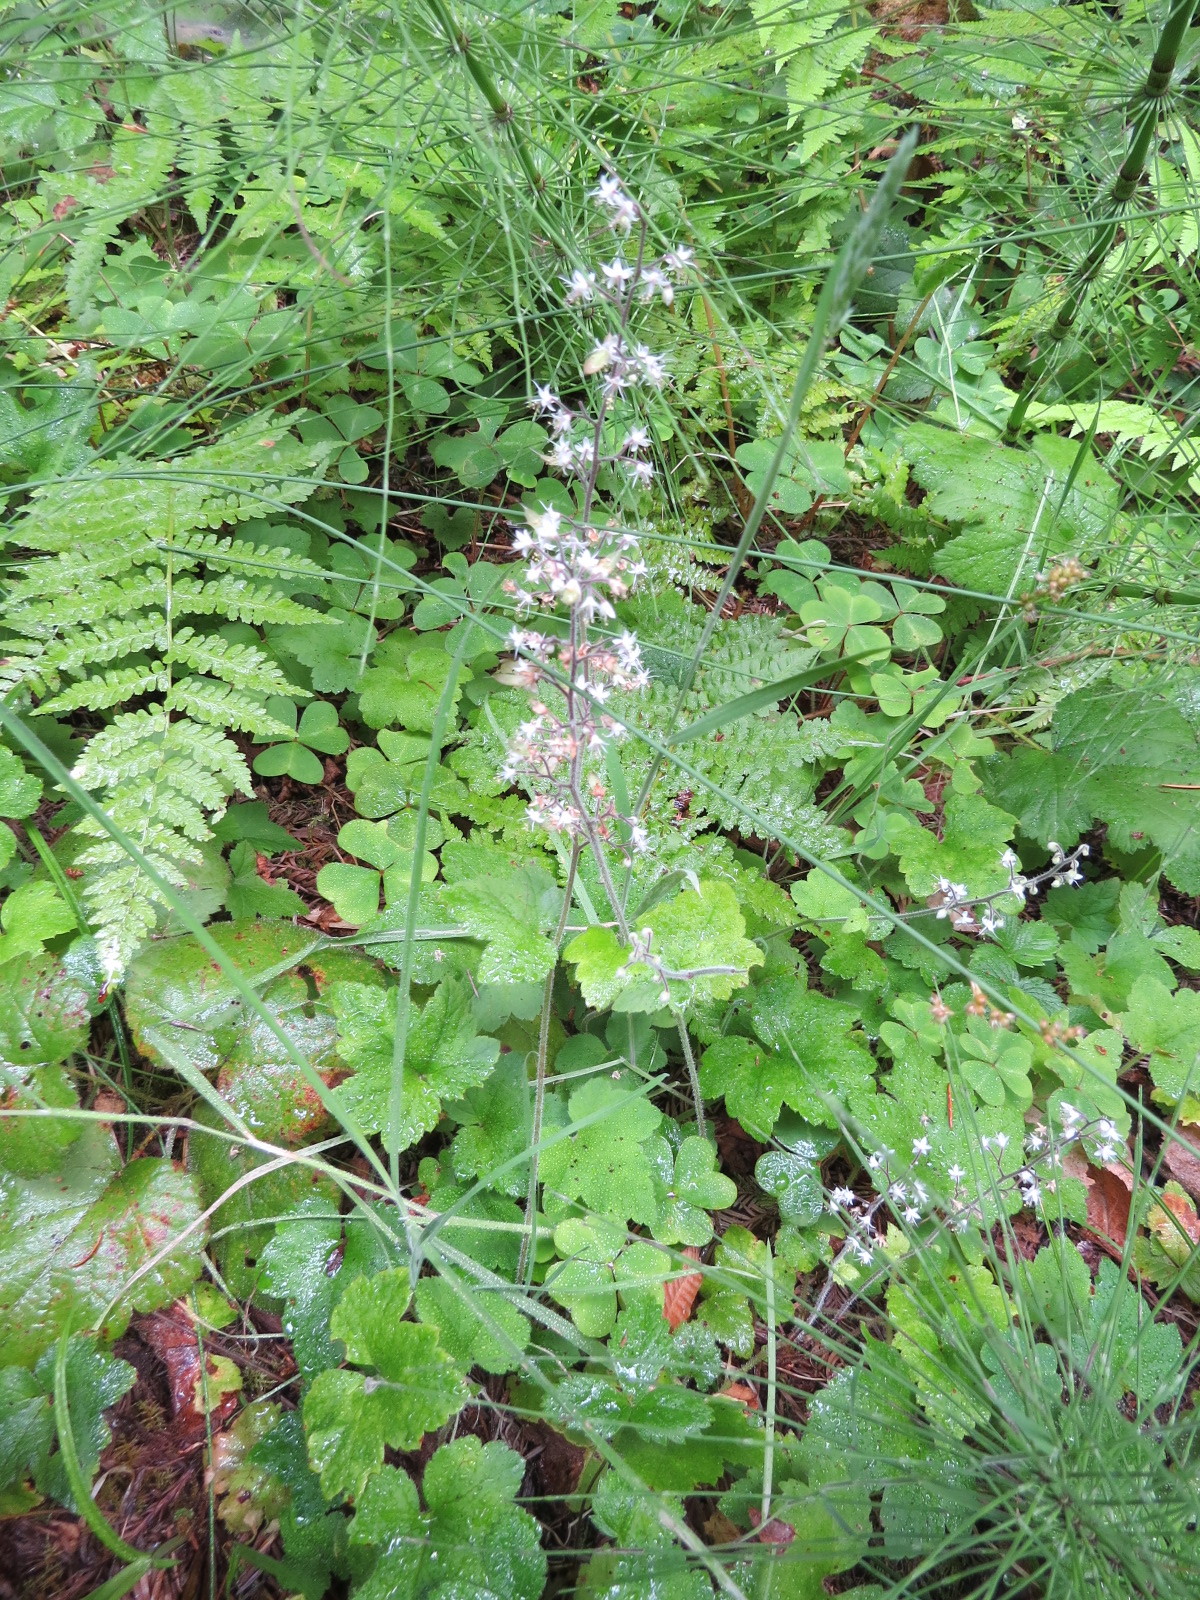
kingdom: Plantae
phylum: Tracheophyta
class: Magnoliopsida
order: Saxifragales
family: Saxifragaceae
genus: Tiarella
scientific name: Tiarella trifoliata
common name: Sugar-scoop
